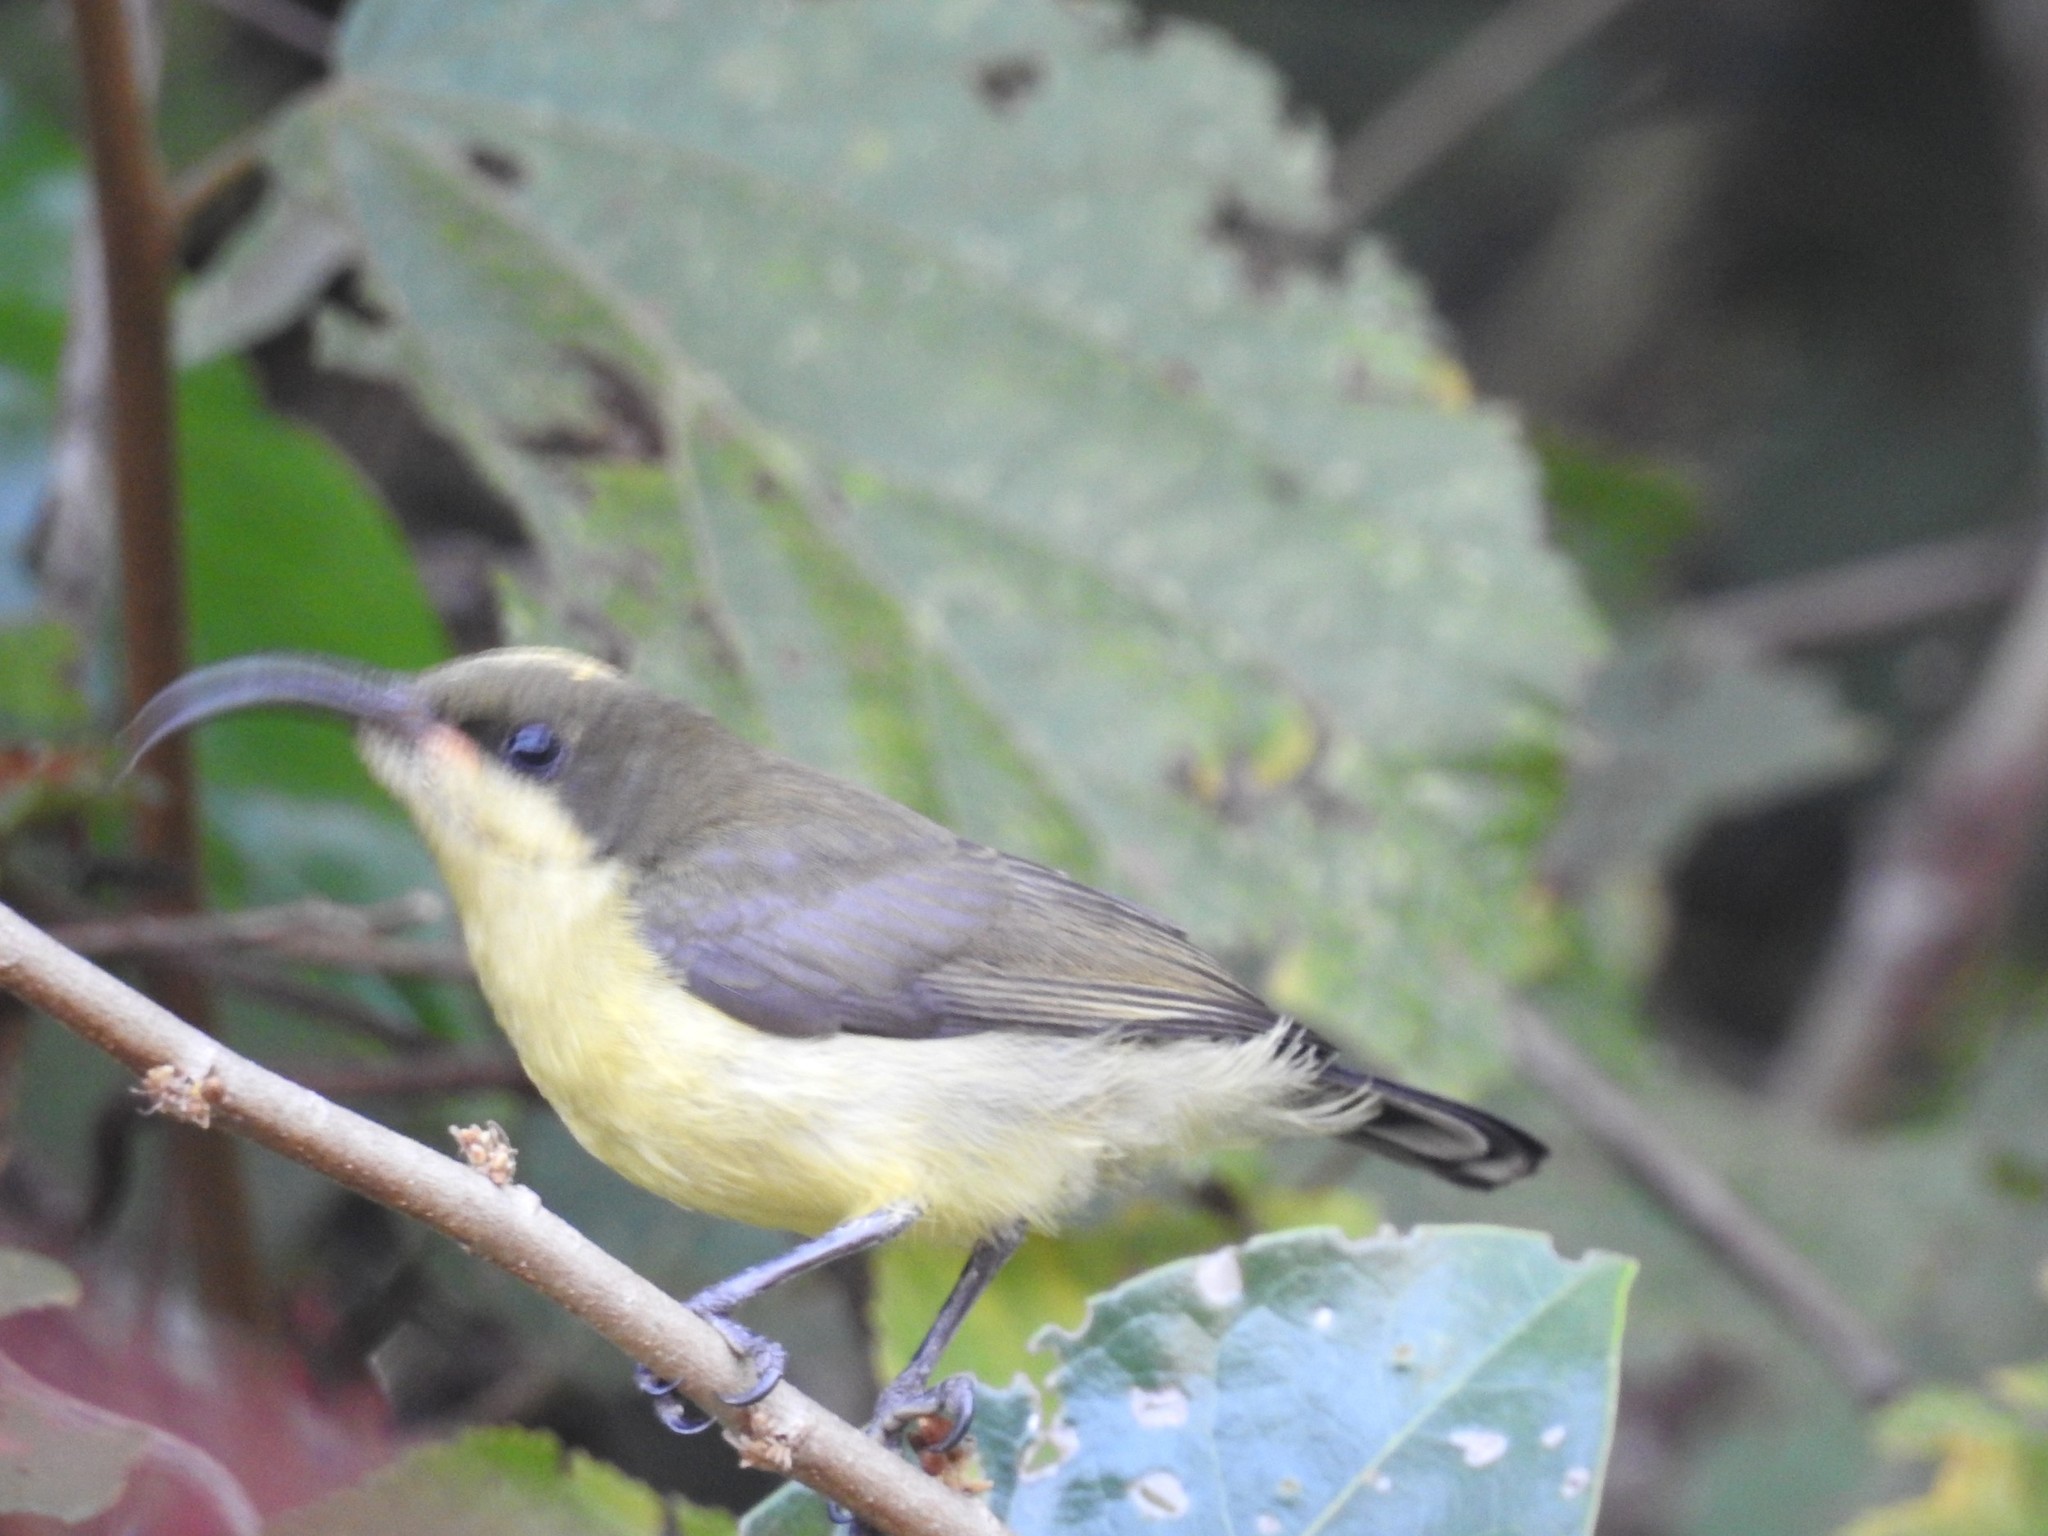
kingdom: Animalia
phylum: Chordata
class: Aves
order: Passeriformes
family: Nectariniidae
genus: Cinnyris
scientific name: Cinnyris lotenius
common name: Loten's sunbird
